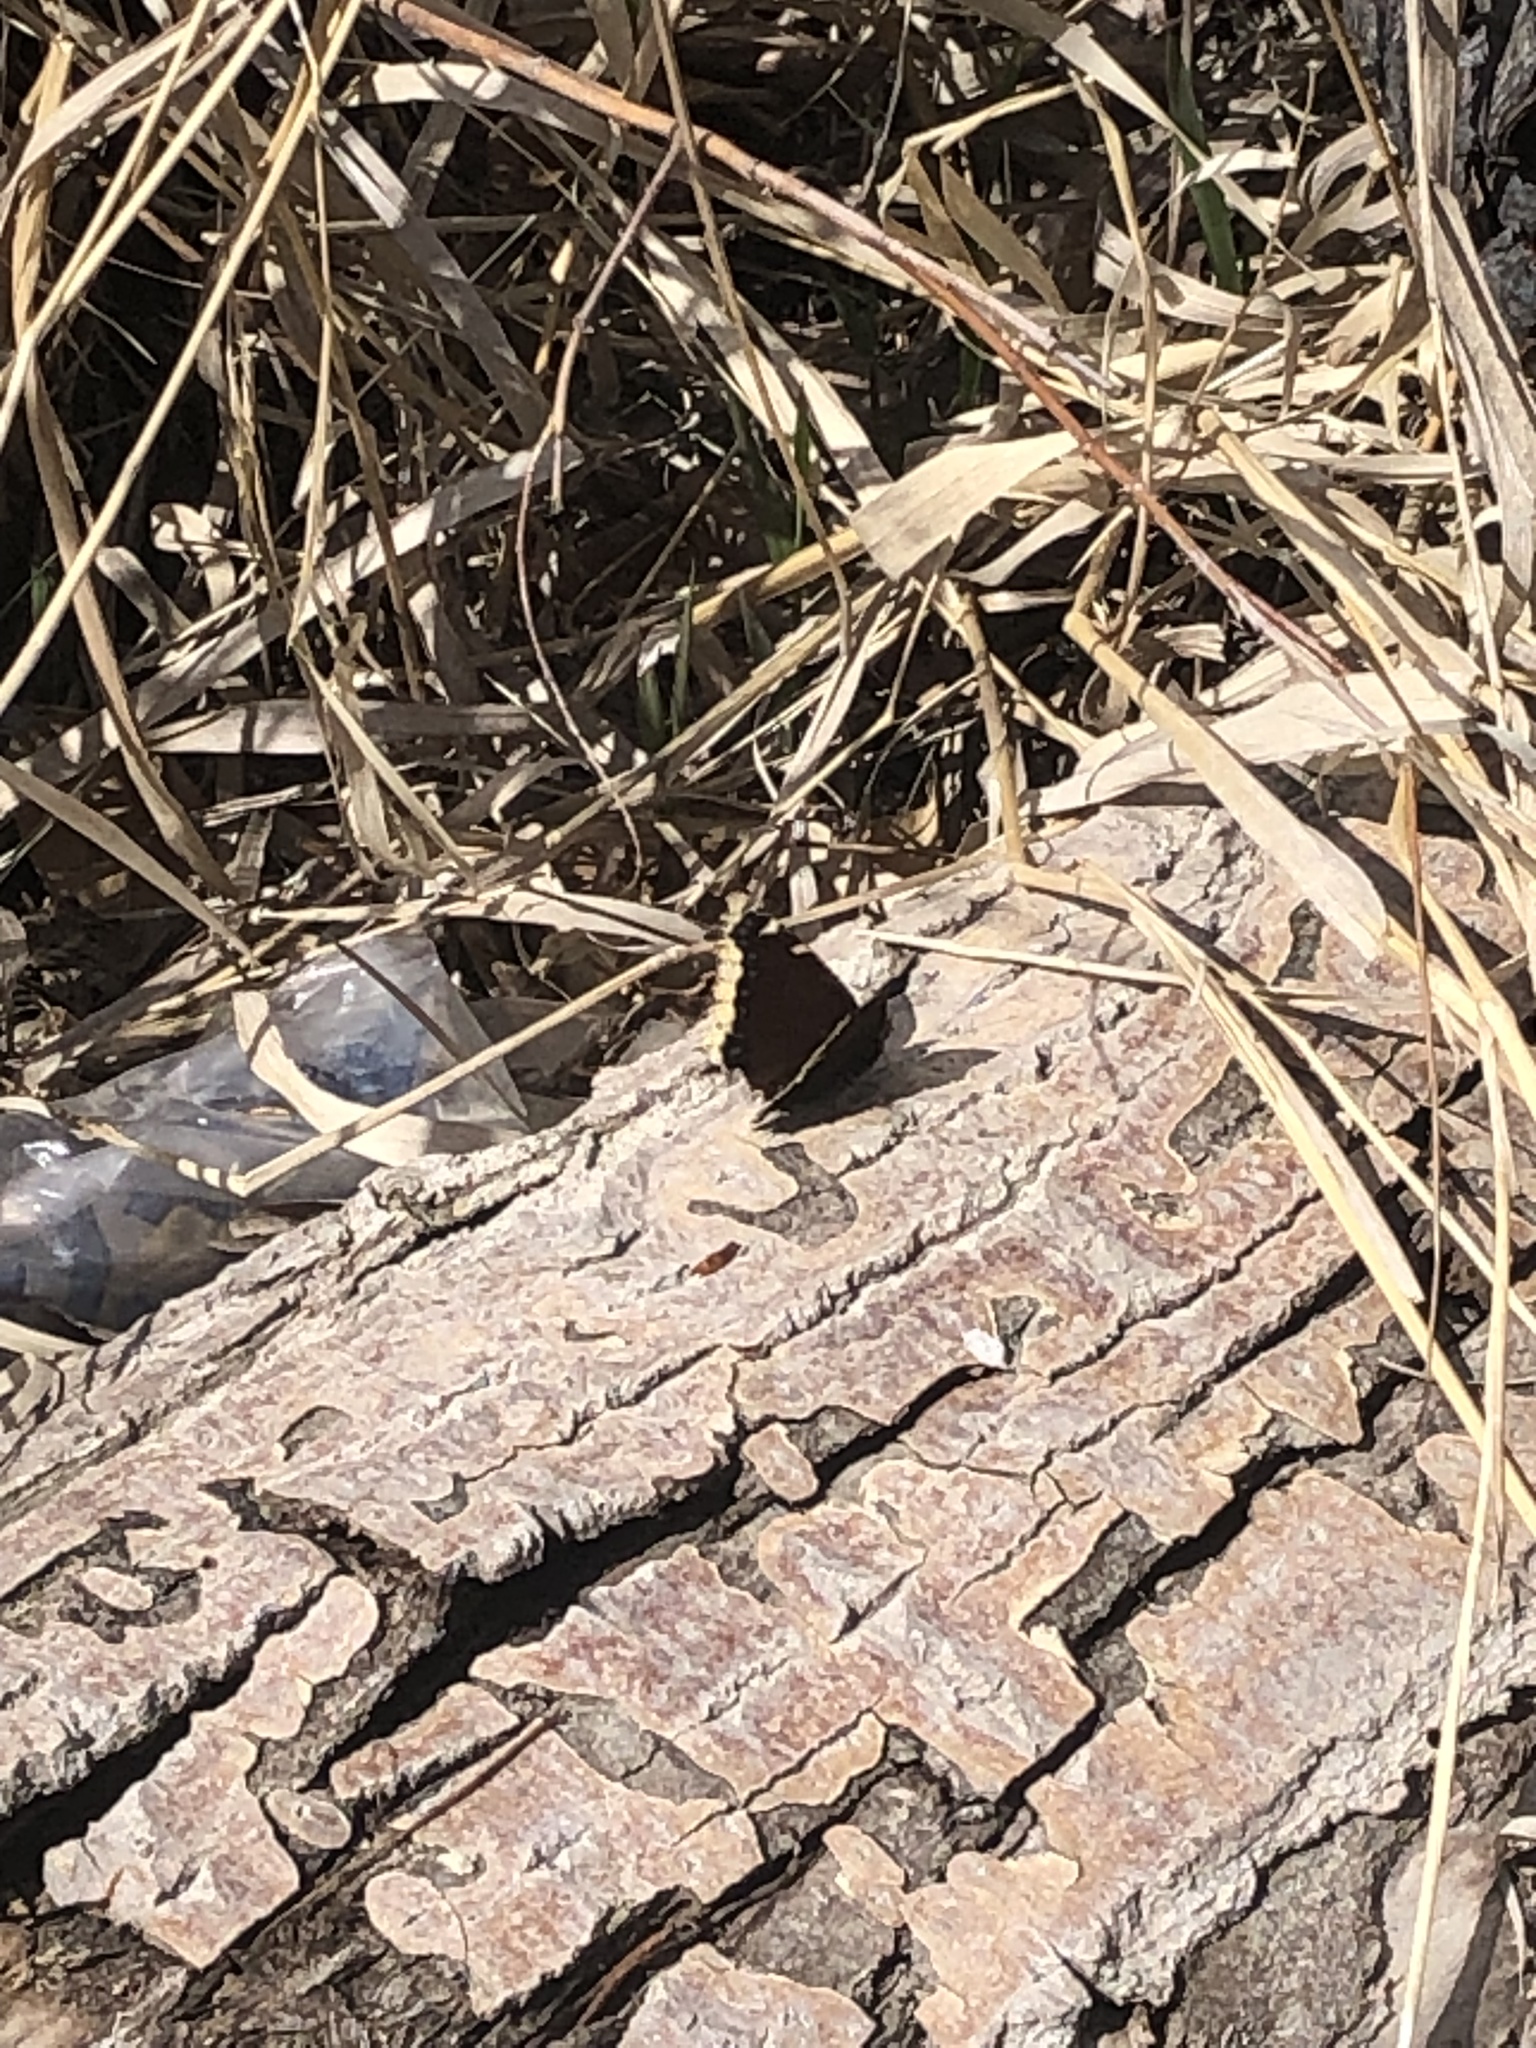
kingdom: Animalia
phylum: Arthropoda
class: Insecta
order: Lepidoptera
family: Nymphalidae
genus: Nymphalis
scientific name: Nymphalis antiopa
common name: Camberwell beauty
